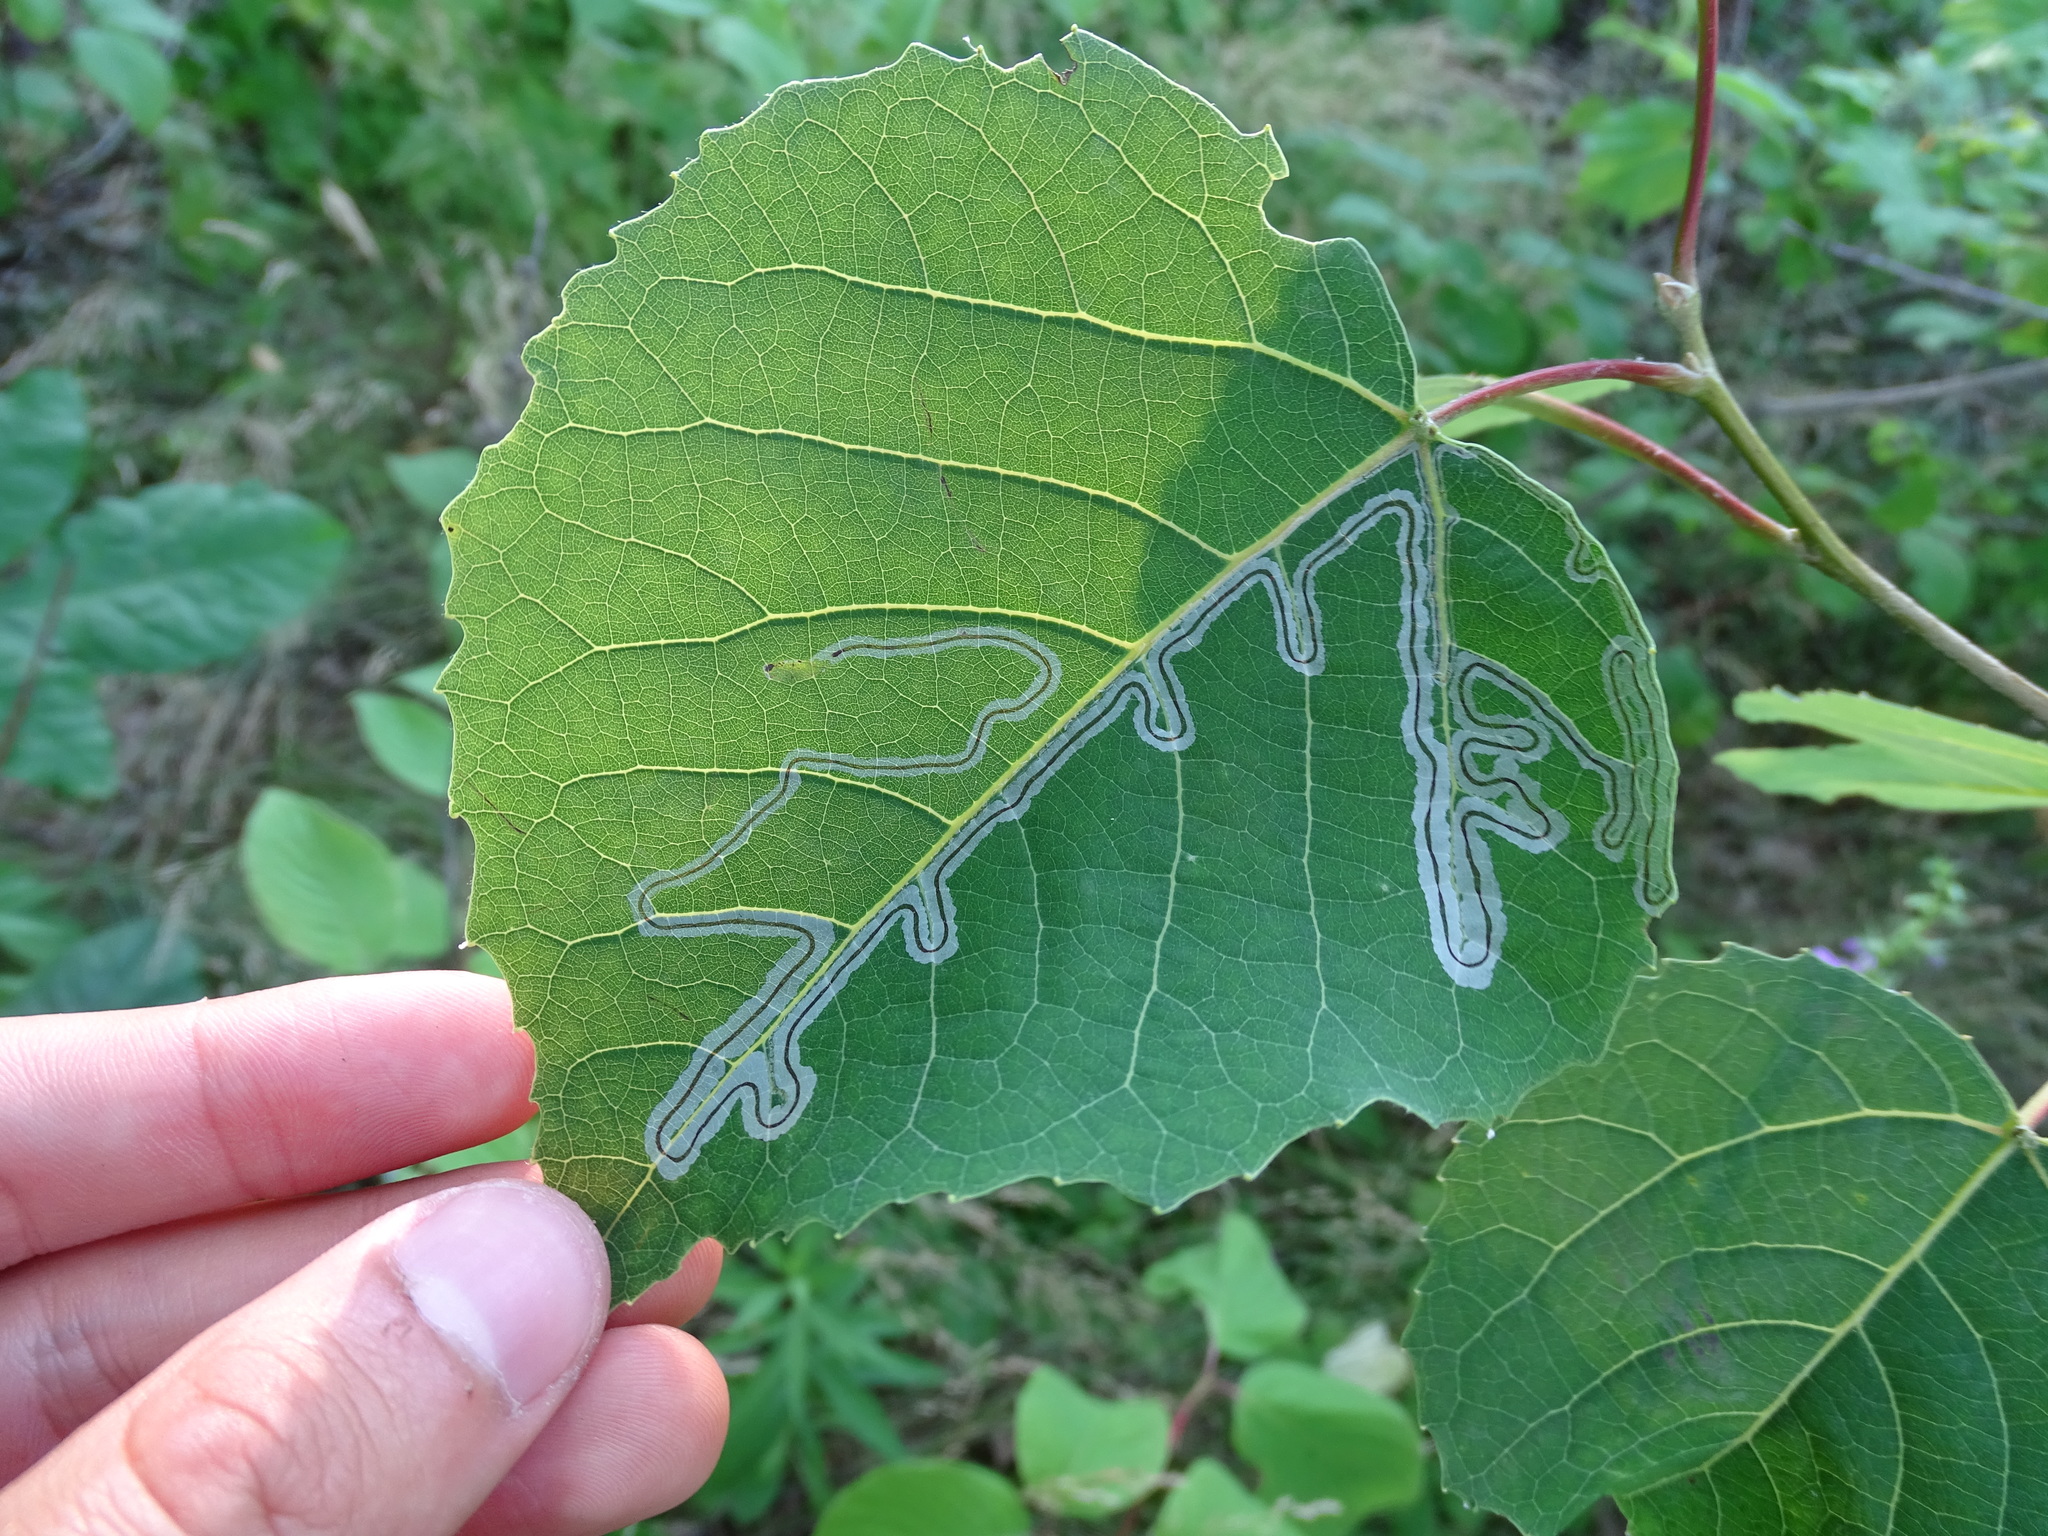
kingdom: Animalia
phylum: Arthropoda
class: Insecta
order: Lepidoptera
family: Gracillariidae
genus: Phyllocnistis
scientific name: Phyllocnistis populiella
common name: Aspen serpentine leafminer moth
